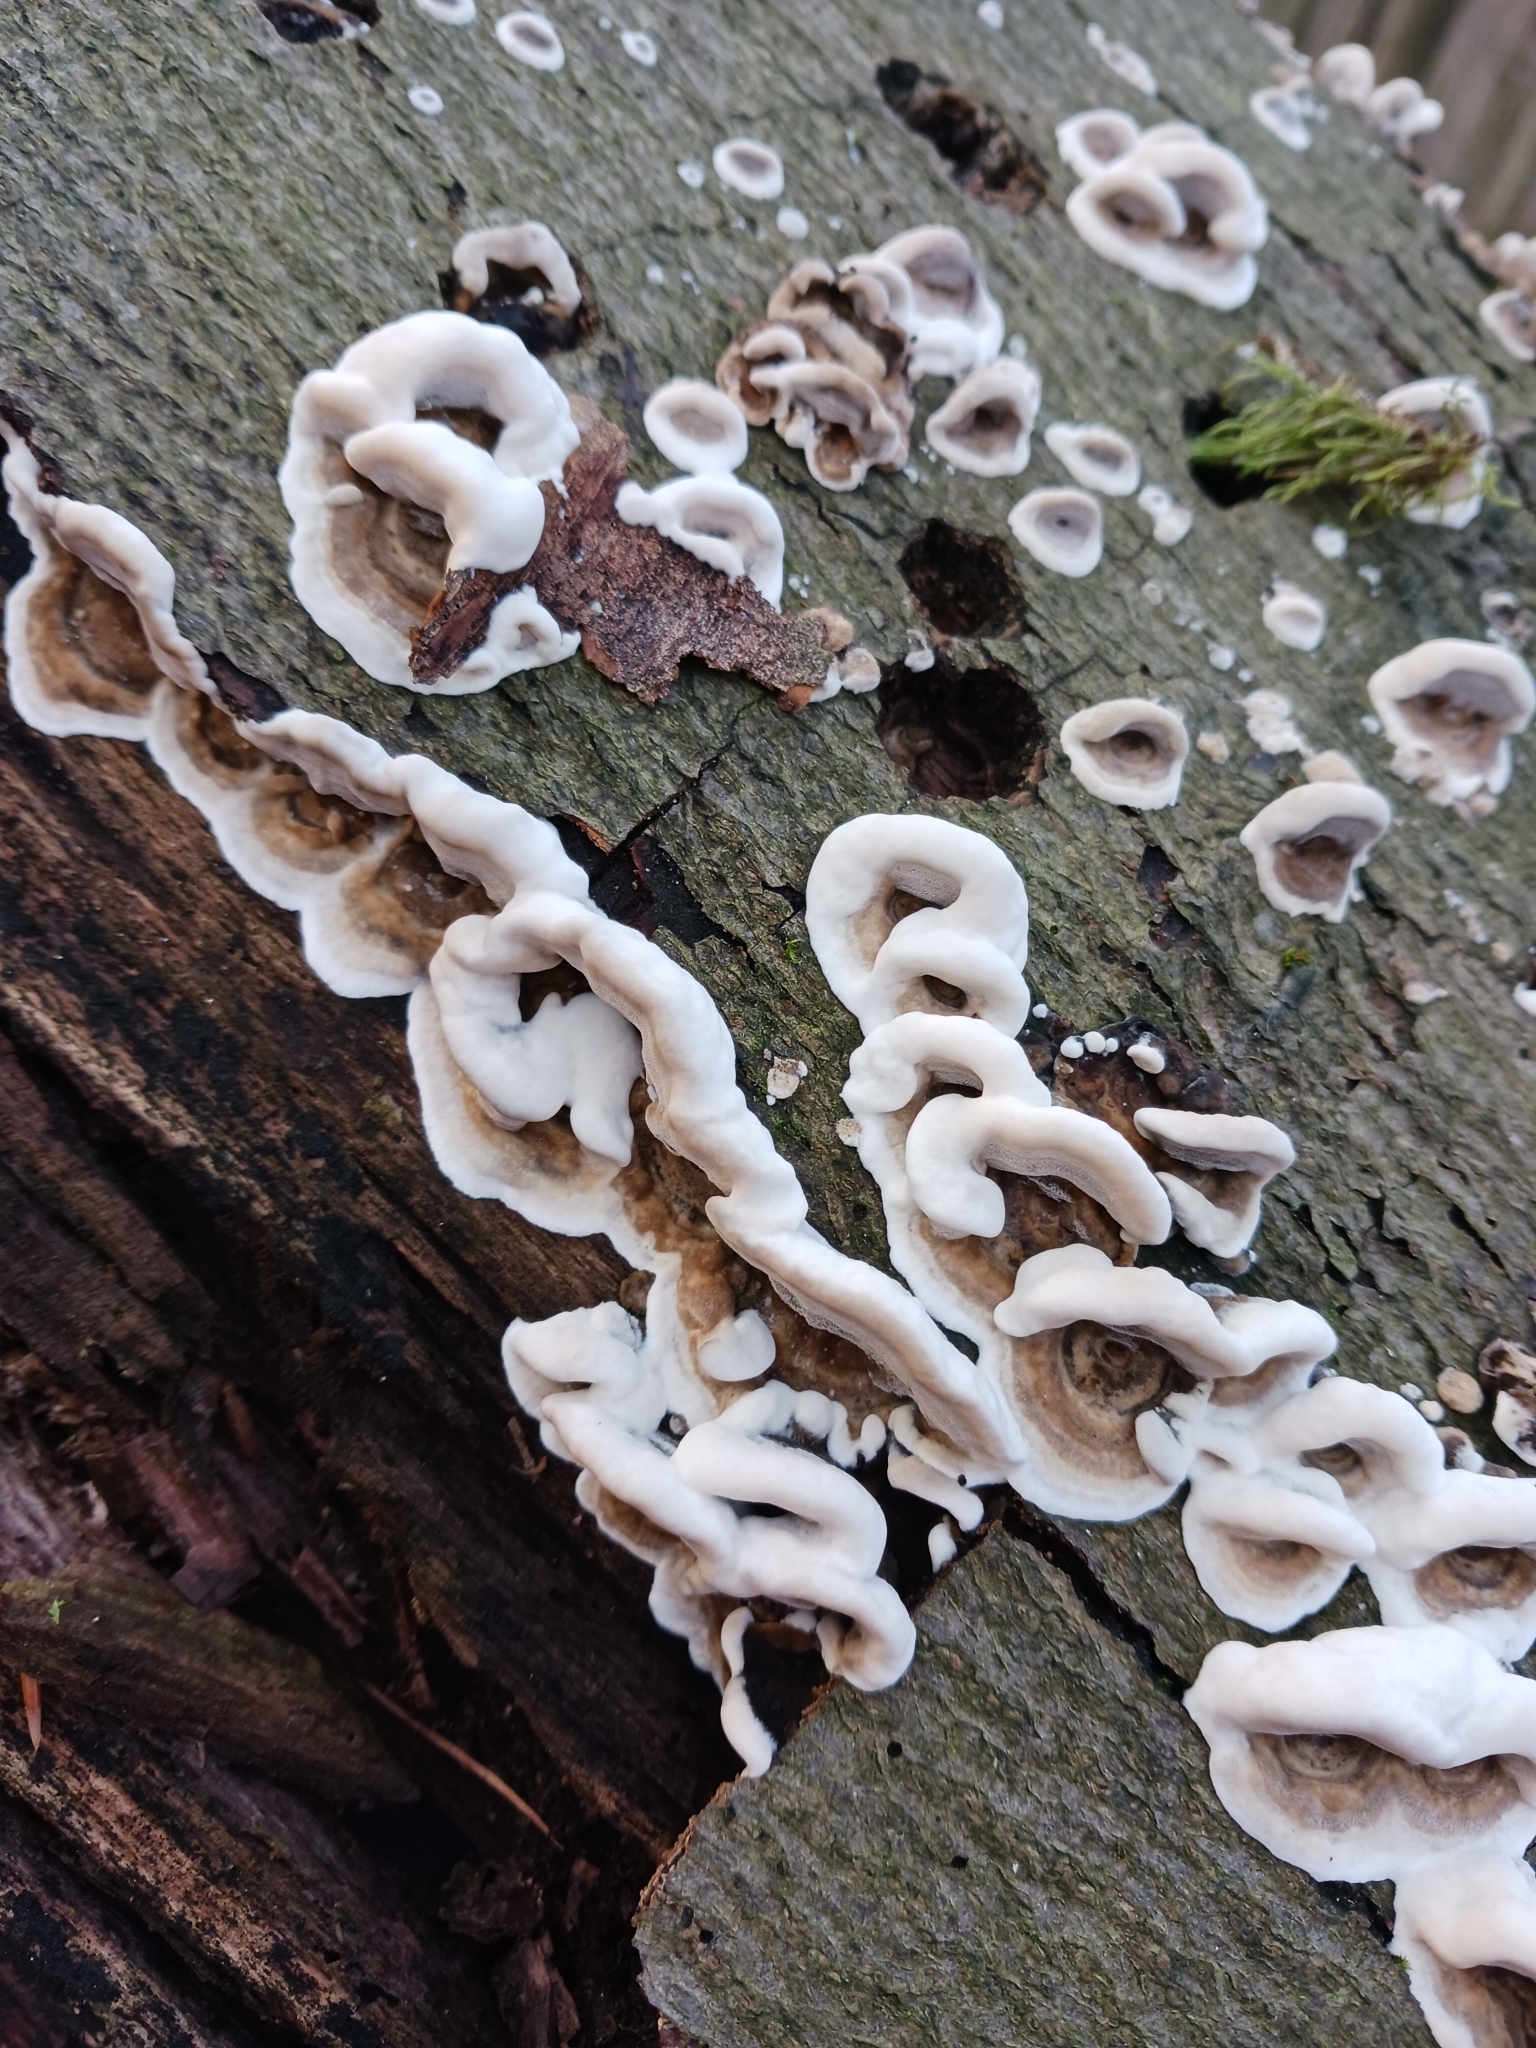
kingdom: Fungi
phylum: Basidiomycota
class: Agaricomycetes
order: Polyporales
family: Phanerochaetaceae
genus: Bjerkandera
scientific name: Bjerkandera adusta
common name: Smoky bracket
